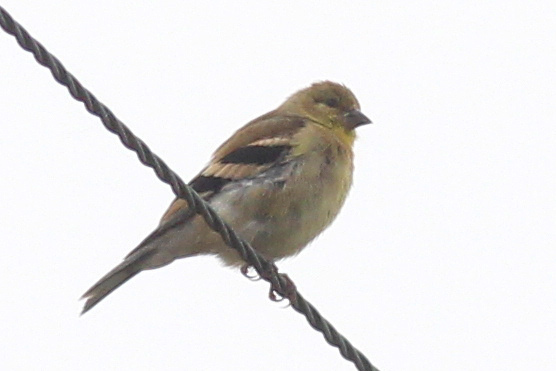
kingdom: Animalia
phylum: Chordata
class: Aves
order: Passeriformes
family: Fringillidae
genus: Spinus
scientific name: Spinus tristis
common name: American goldfinch
